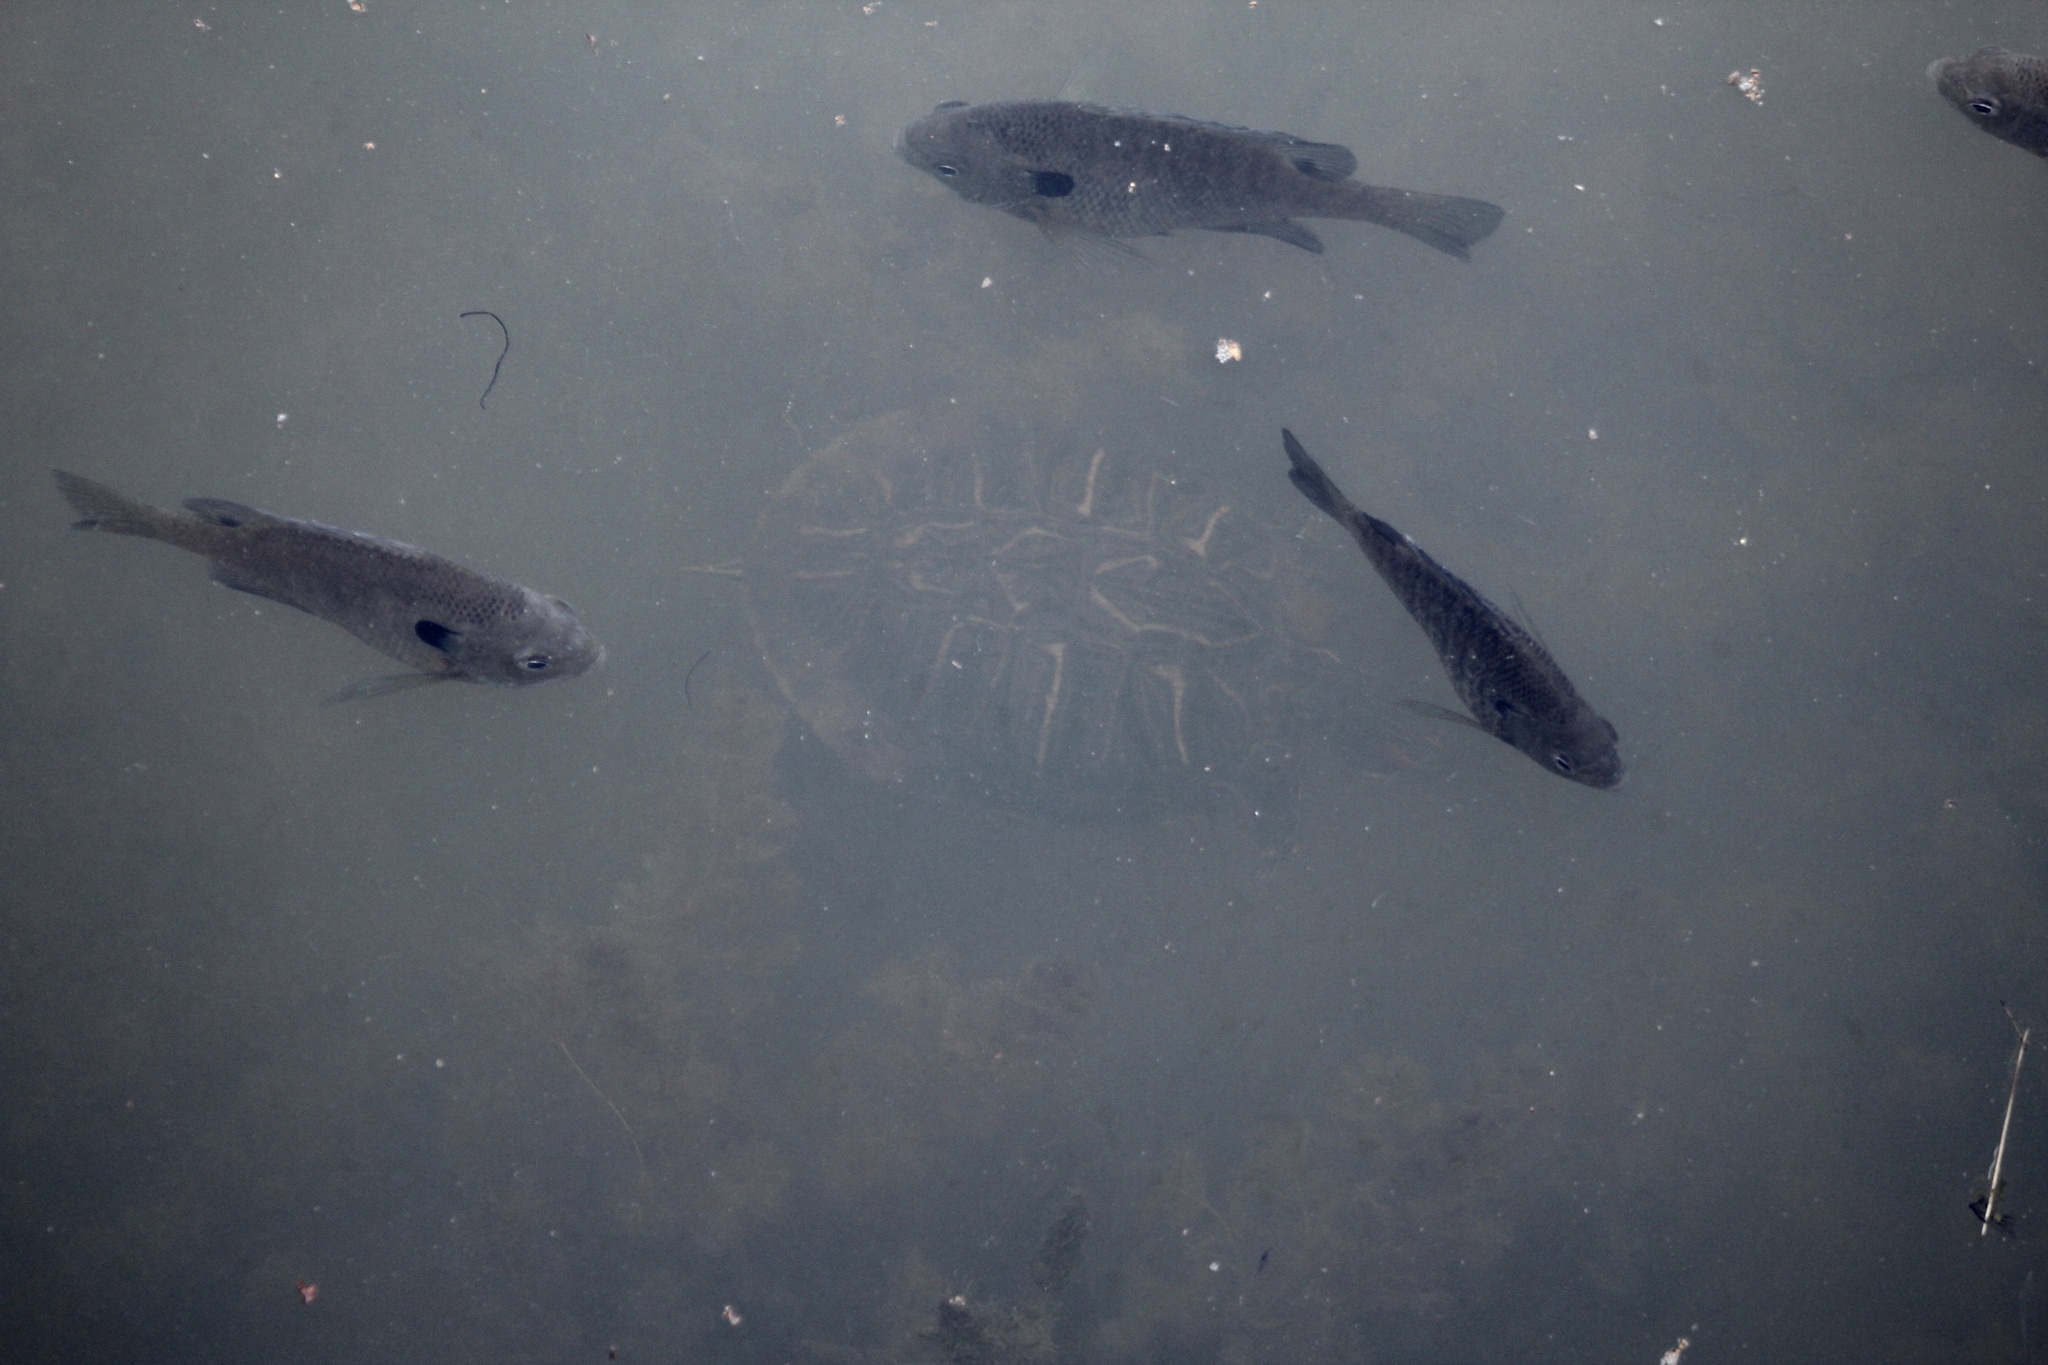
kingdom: Animalia
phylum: Chordata
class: Testudines
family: Emydidae
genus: Trachemys
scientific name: Trachemys scripta
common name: Slider
